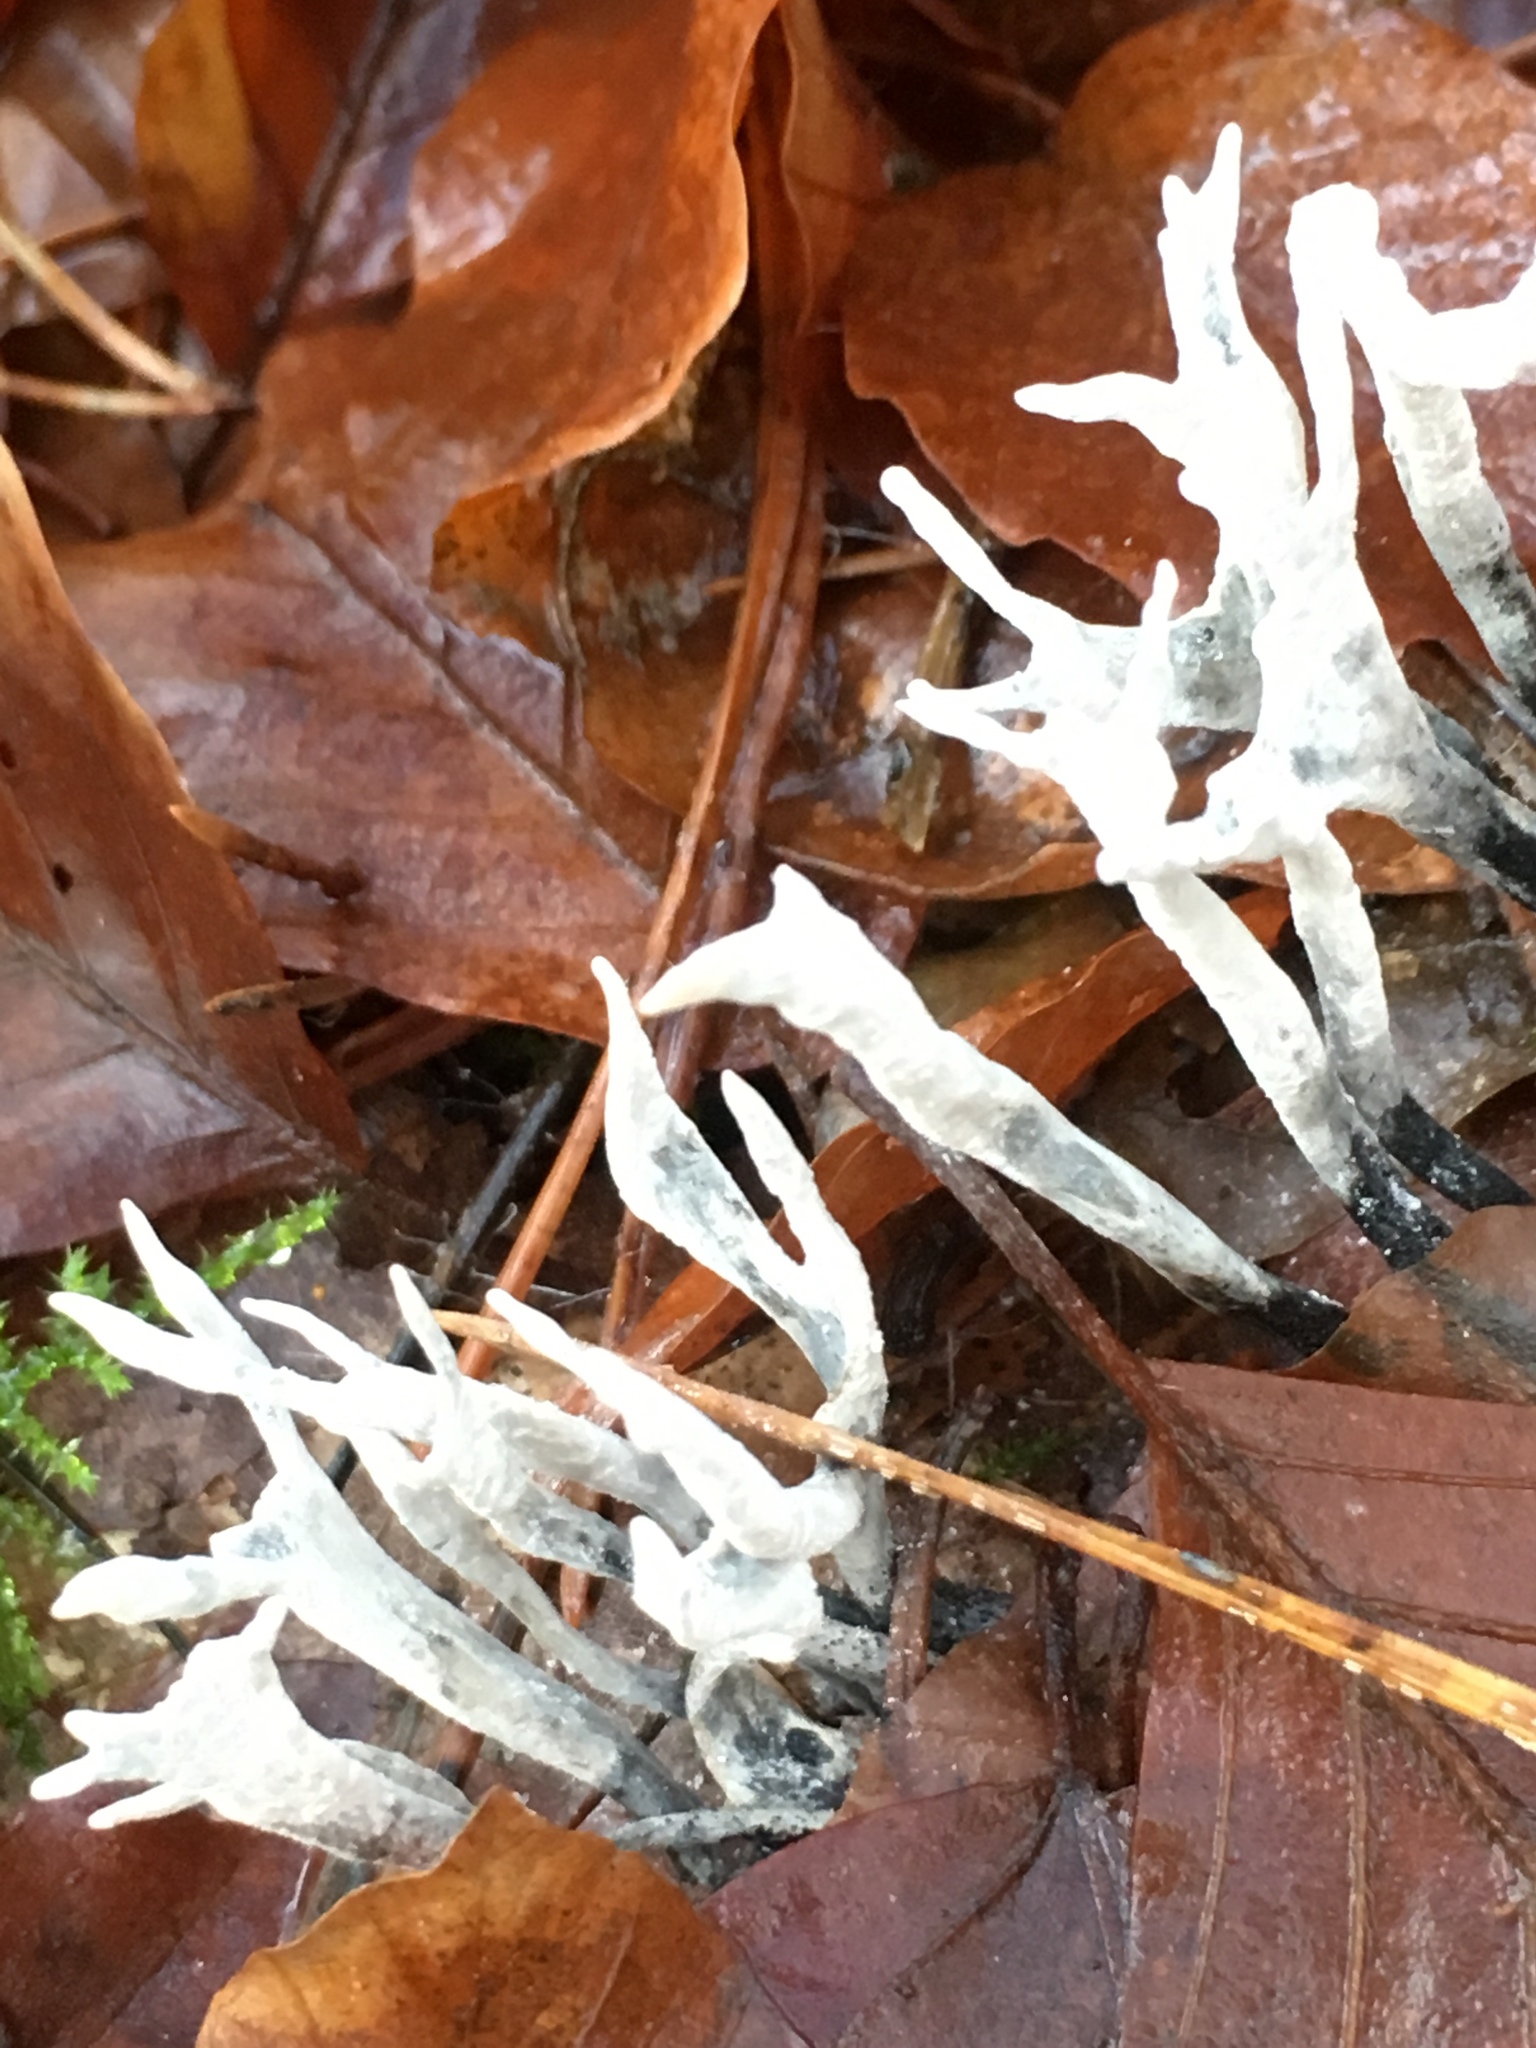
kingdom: Fungi
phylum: Ascomycota
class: Sordariomycetes
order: Xylariales
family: Xylariaceae
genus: Xylaria
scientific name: Xylaria hypoxylon
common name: Candle-snuff fungus
